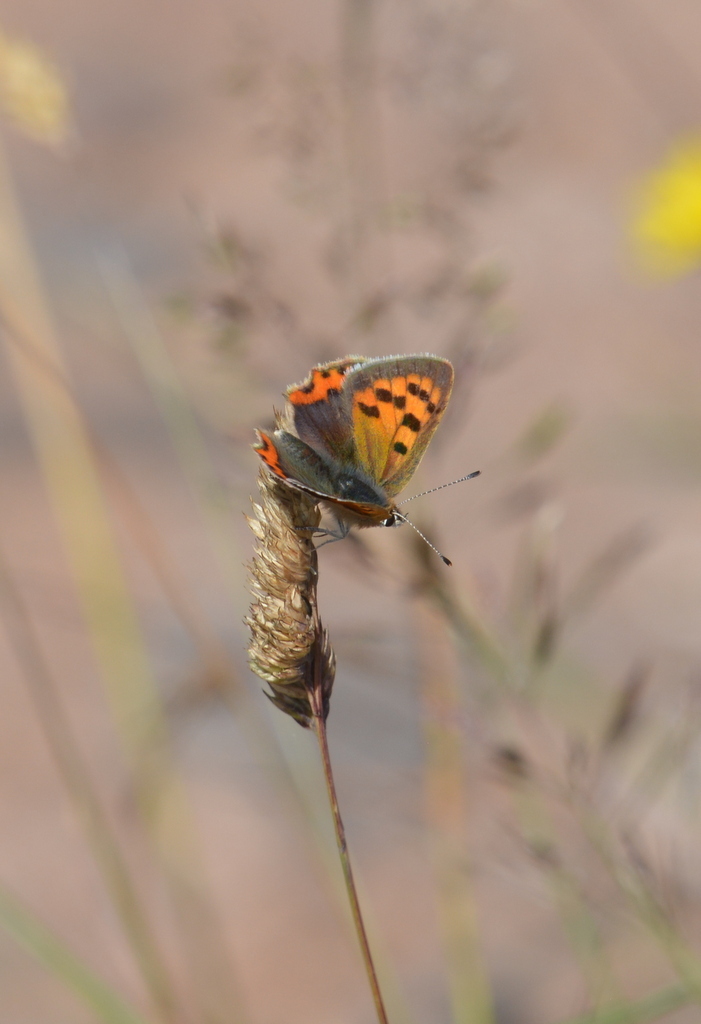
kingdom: Animalia
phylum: Arthropoda
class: Insecta
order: Lepidoptera
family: Lycaenidae
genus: Lycaena
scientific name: Lycaena phlaeas
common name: Small copper
